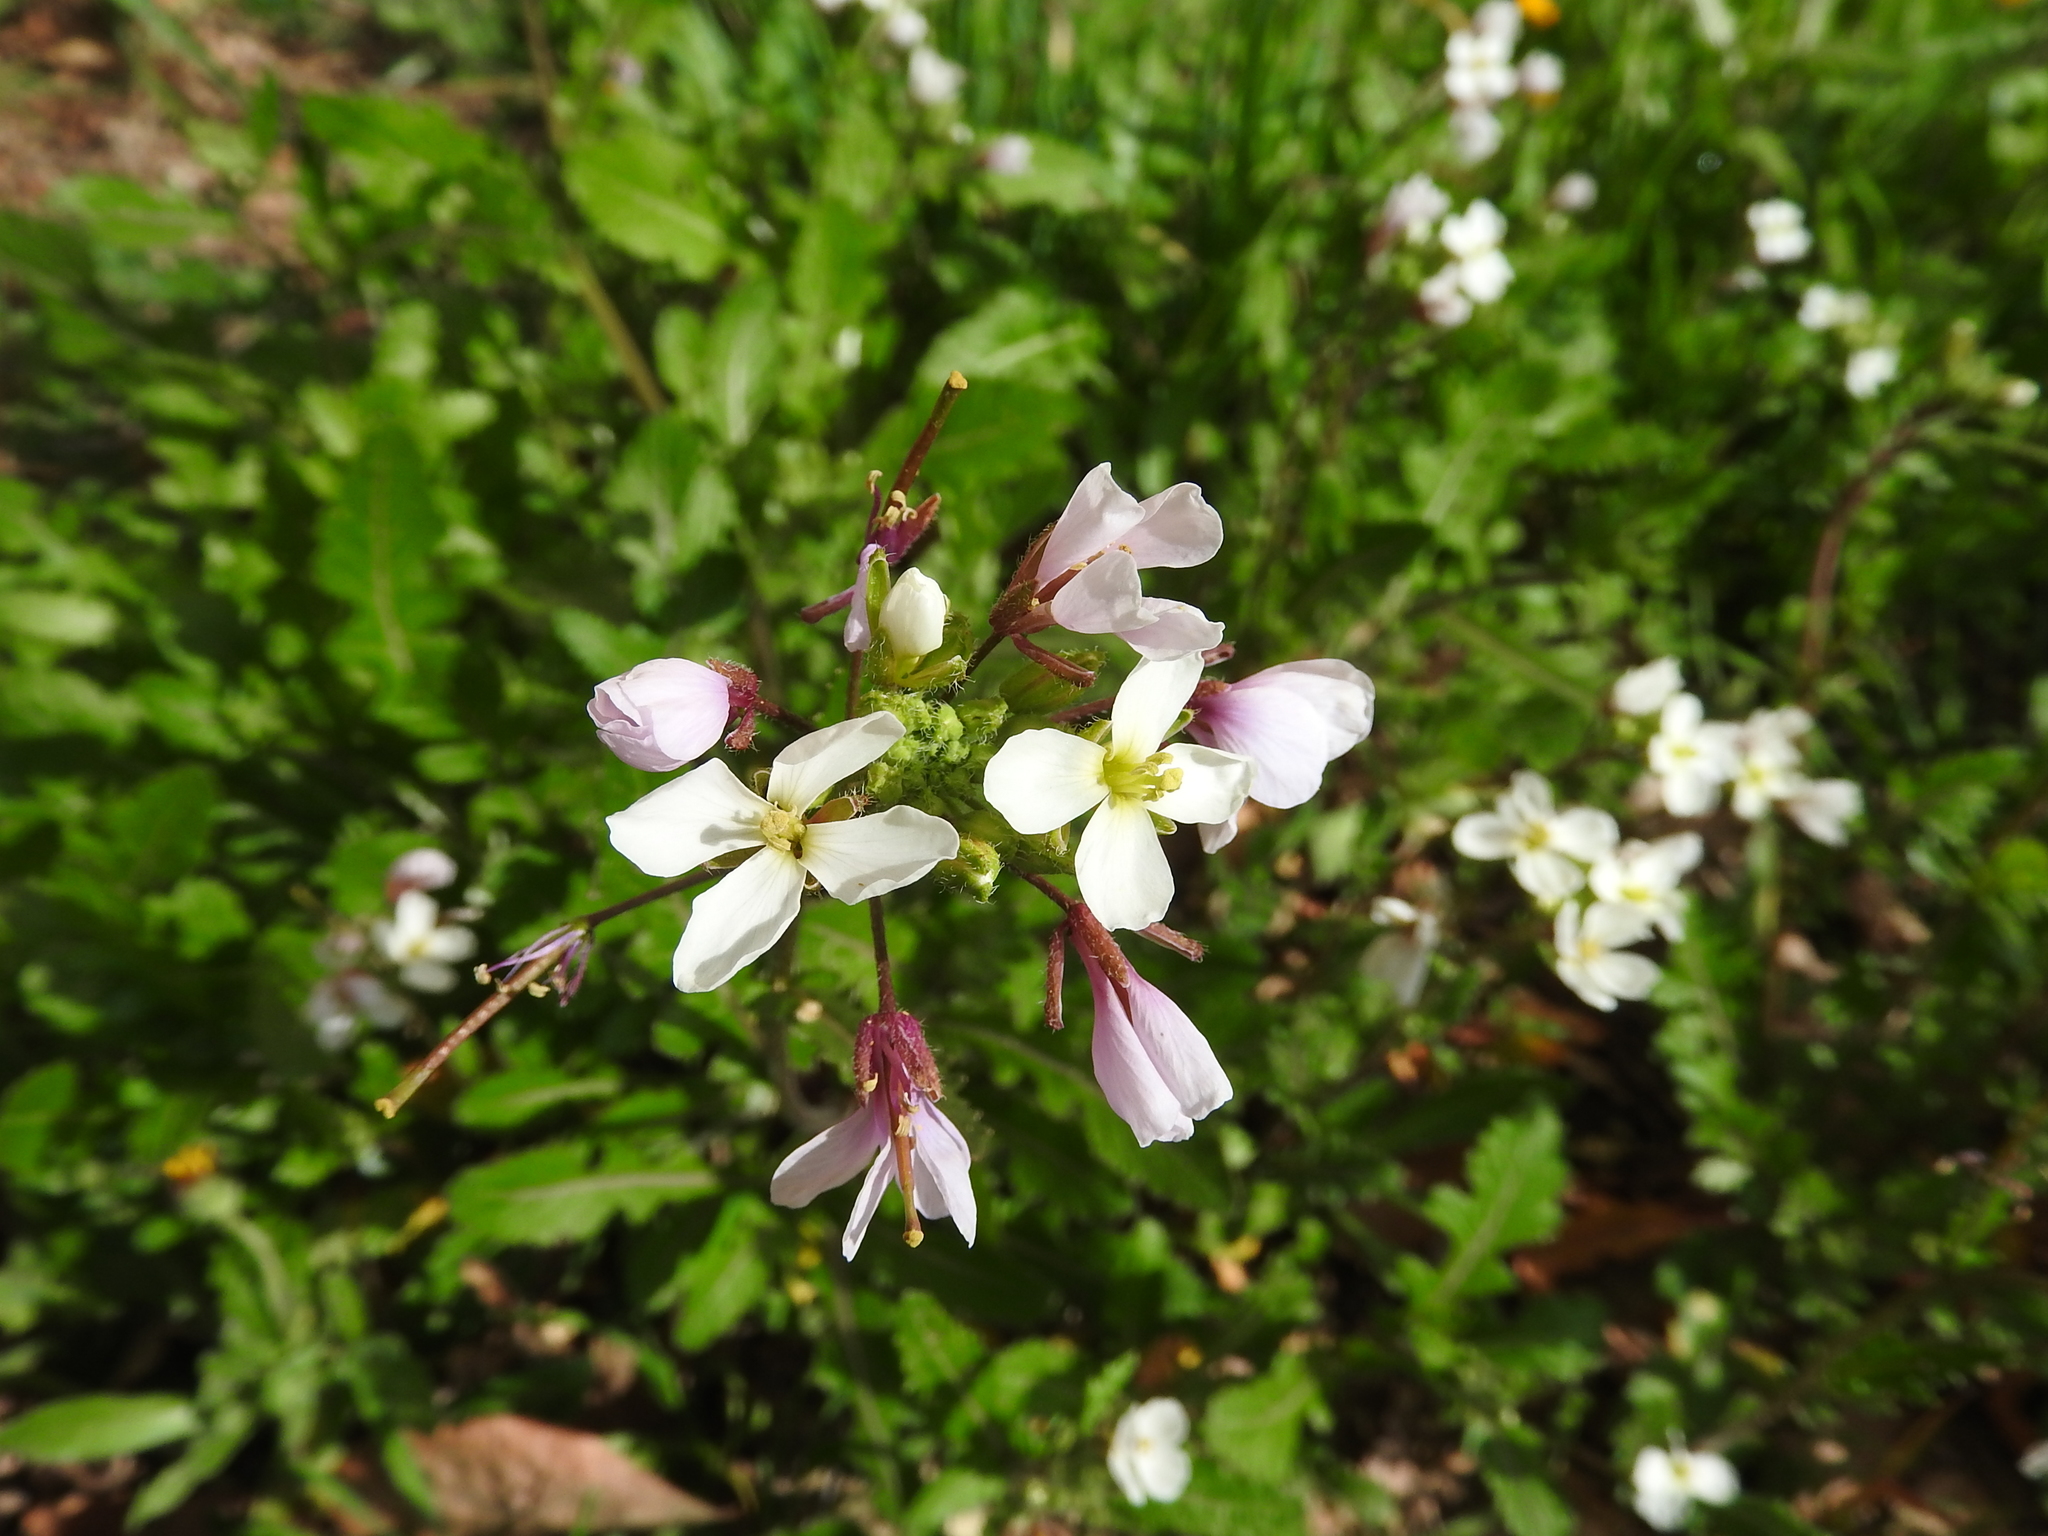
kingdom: Plantae
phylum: Tracheophyta
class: Magnoliopsida
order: Brassicales
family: Brassicaceae
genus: Diplotaxis
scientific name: Diplotaxis erucoides
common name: White rocket
